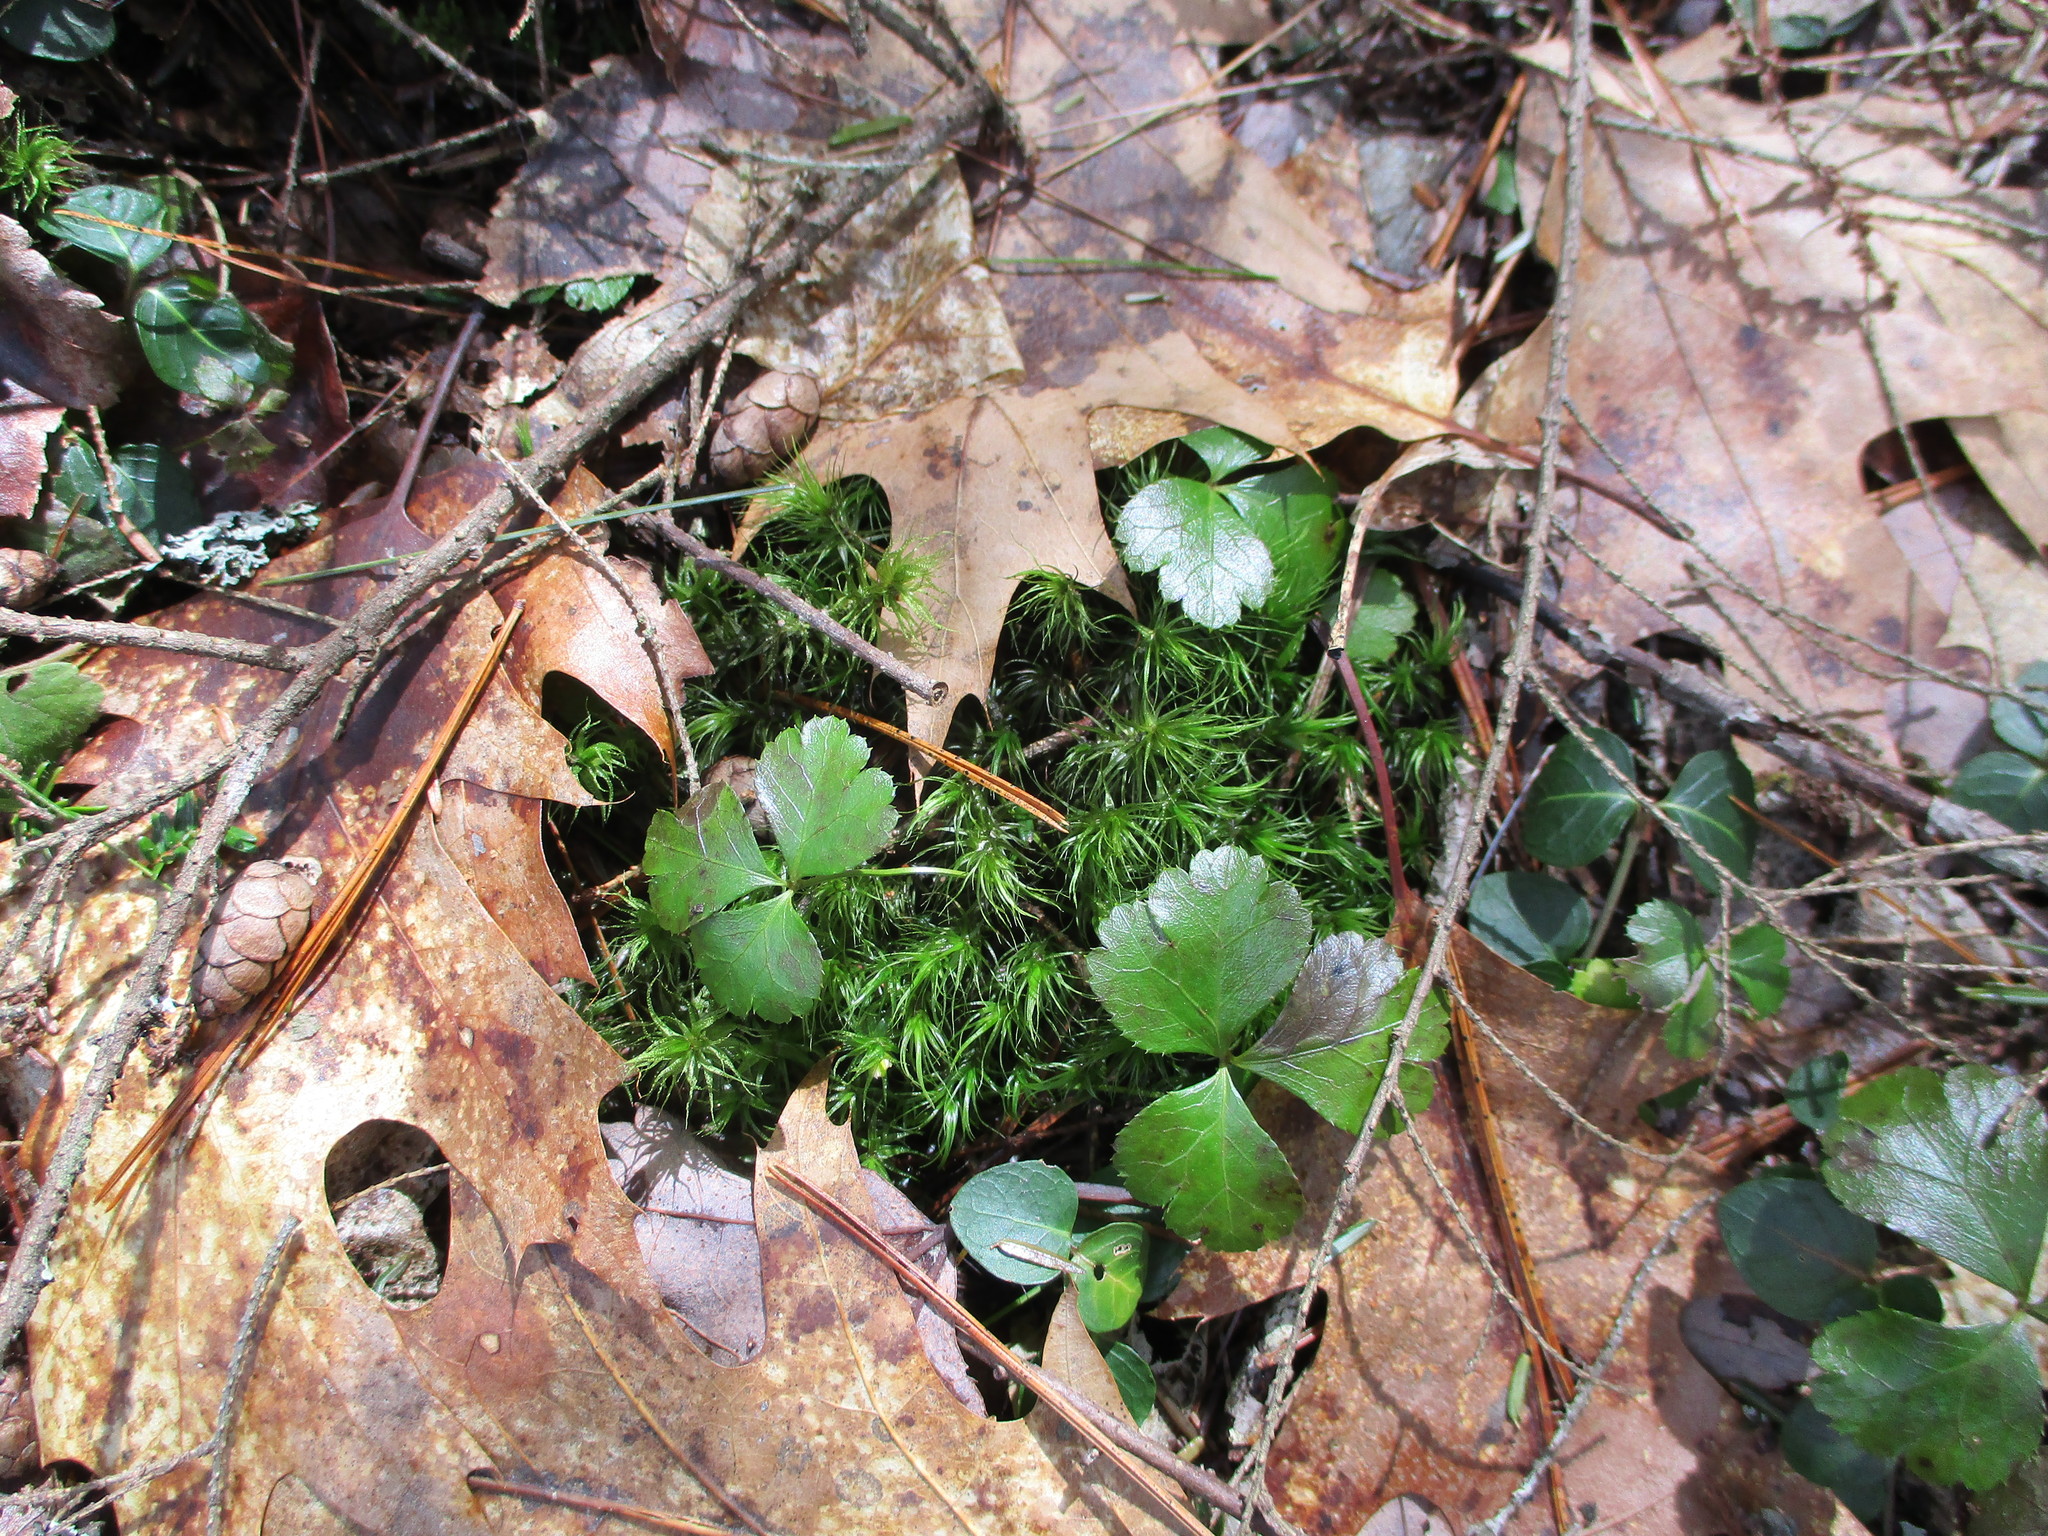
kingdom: Plantae
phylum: Tracheophyta
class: Magnoliopsida
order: Ranunculales
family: Ranunculaceae
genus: Coptis
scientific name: Coptis trifolia
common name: Canker-root
